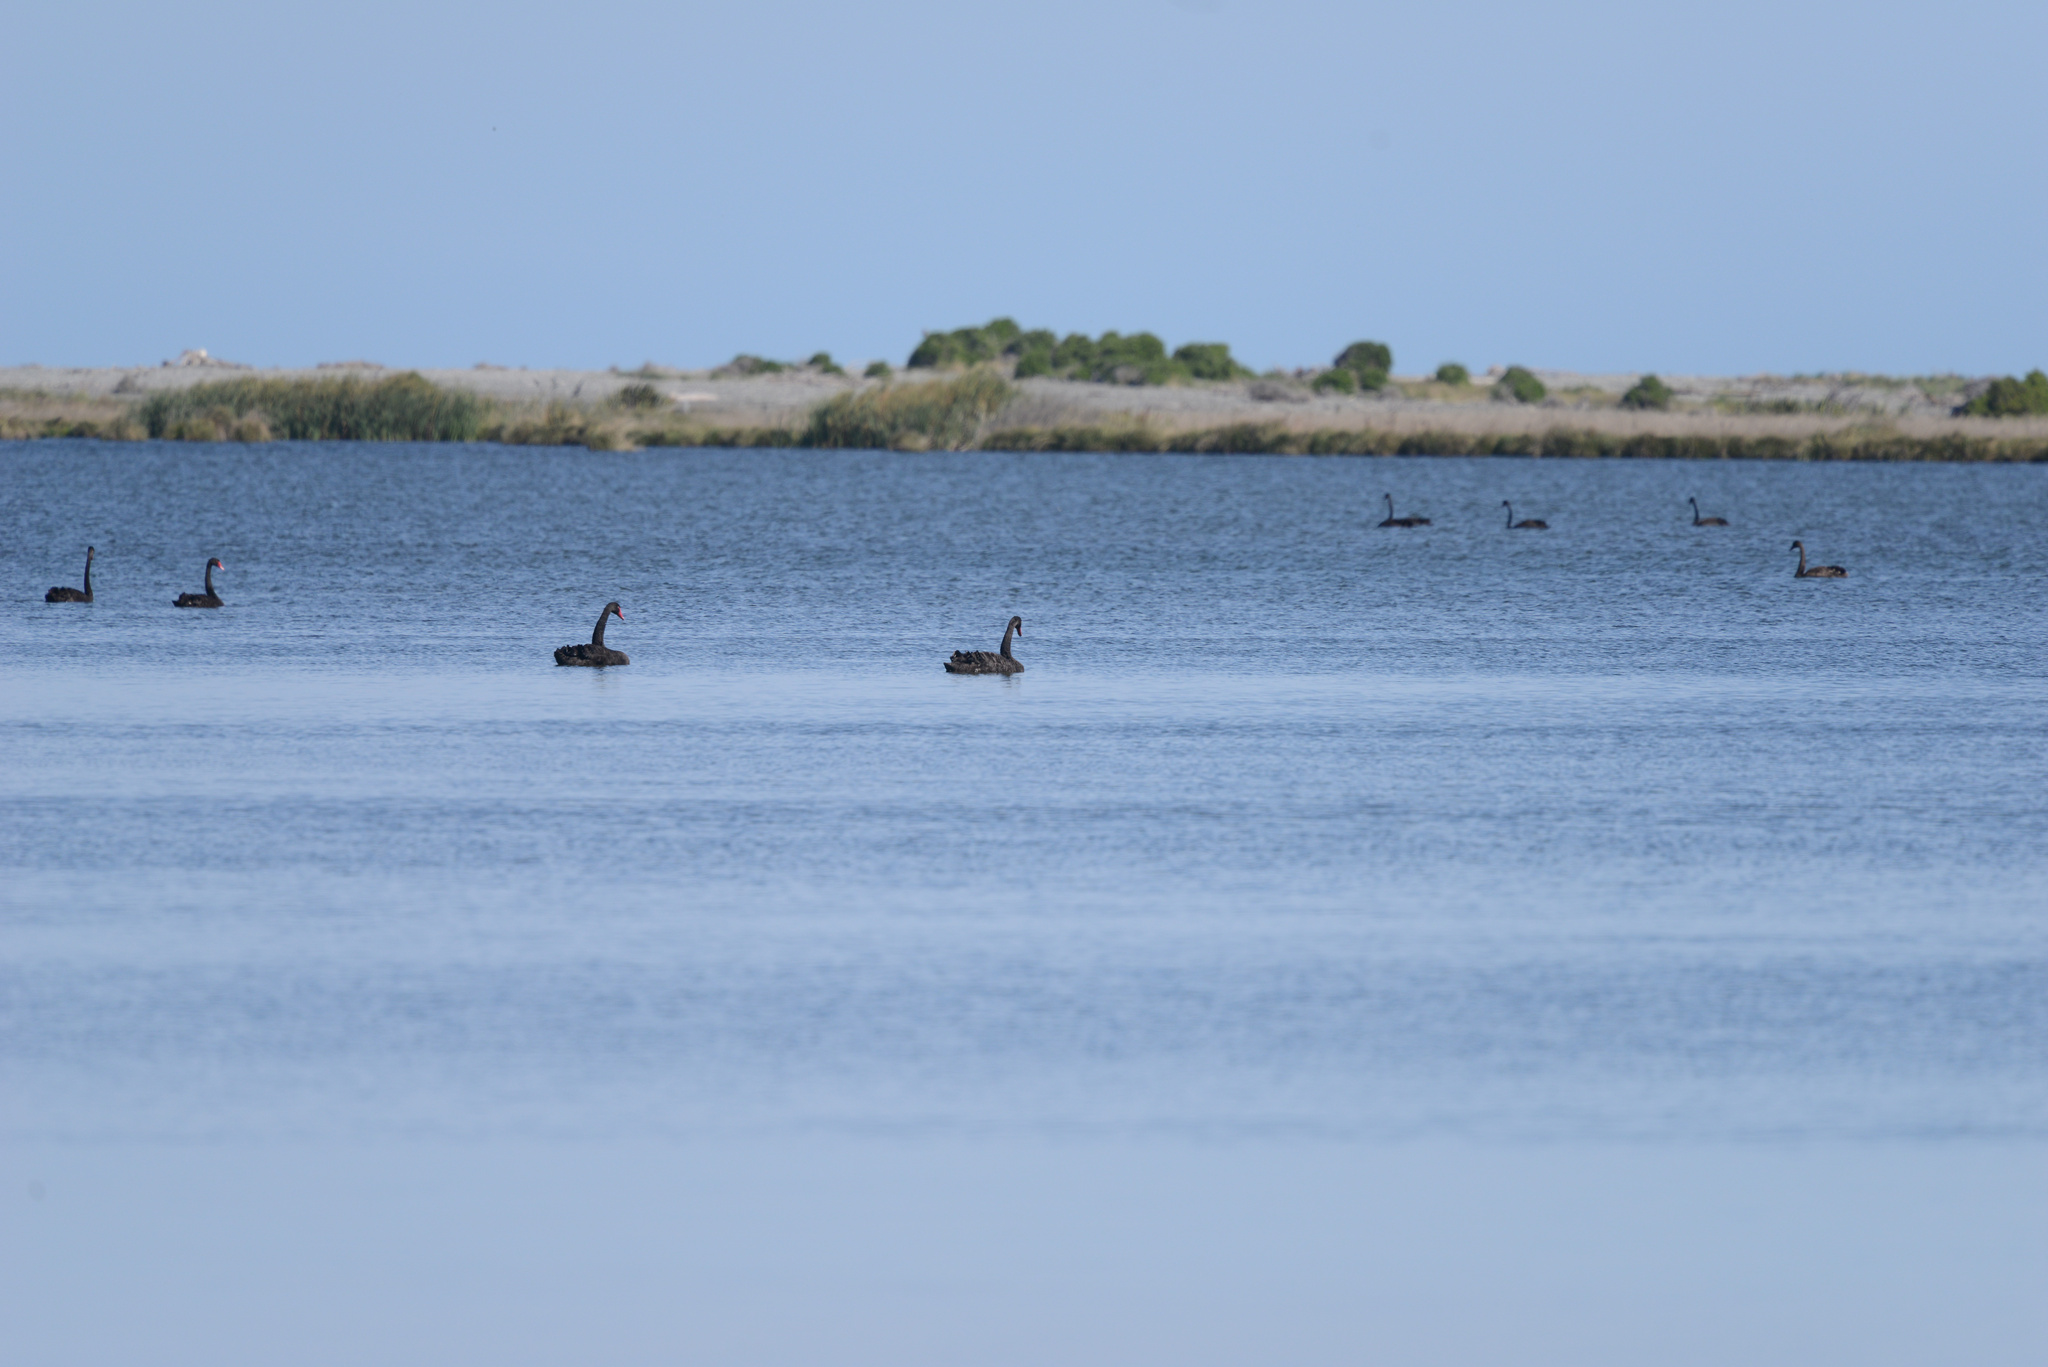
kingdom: Animalia
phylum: Chordata
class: Aves
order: Anseriformes
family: Anatidae
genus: Cygnus
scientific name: Cygnus atratus
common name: Black swan
